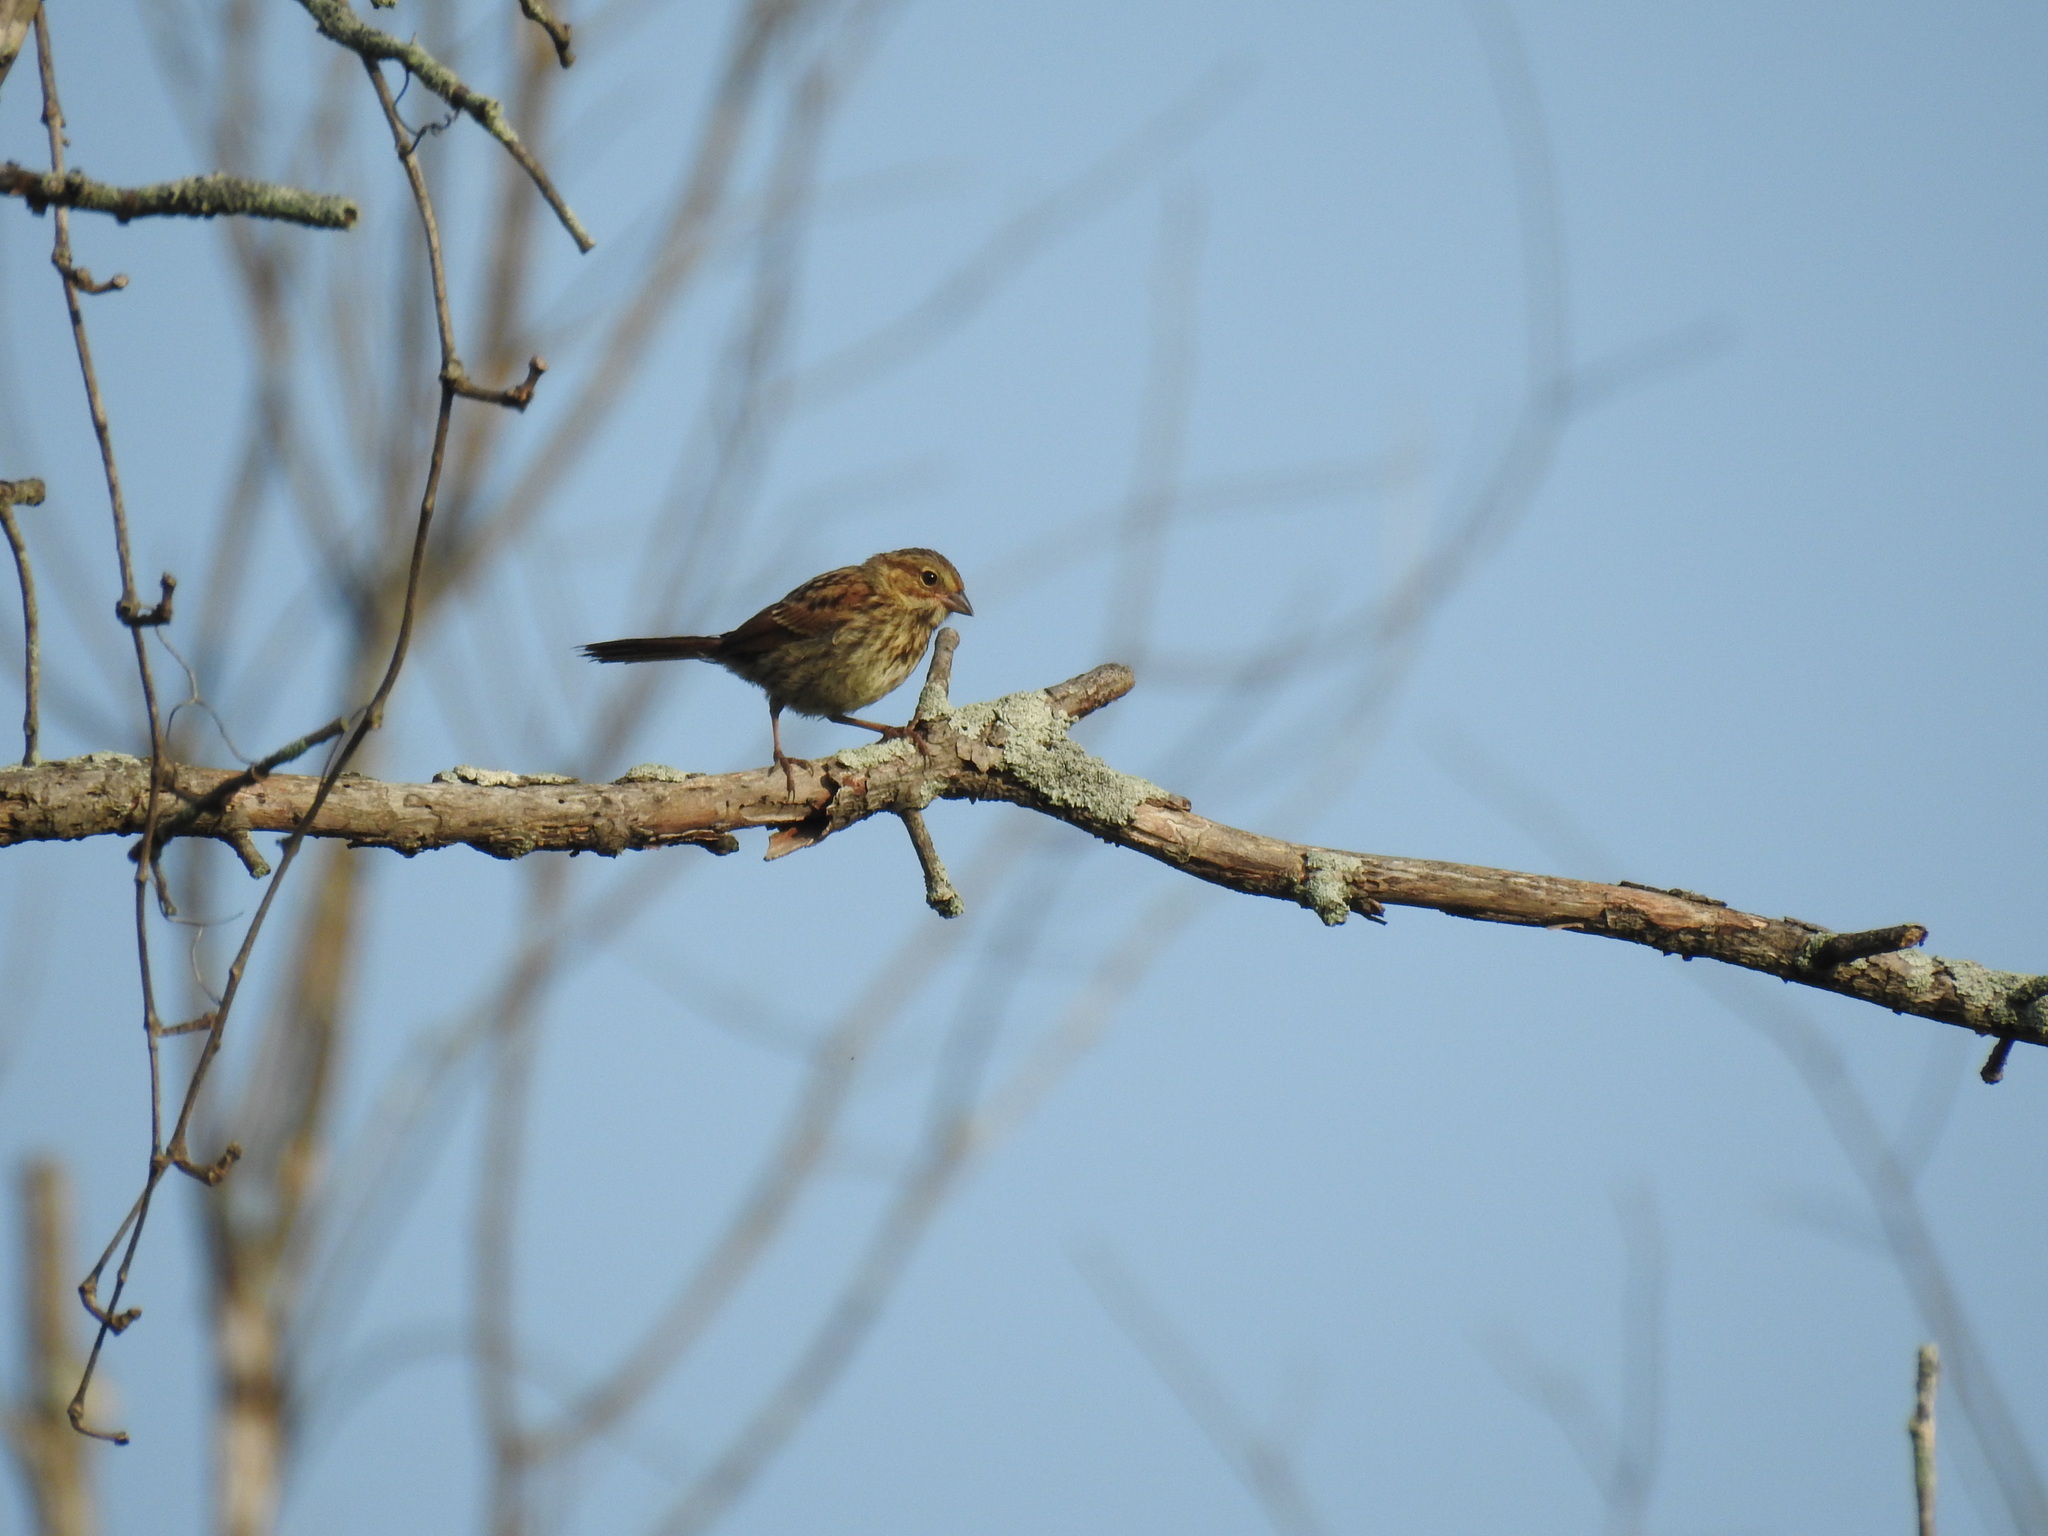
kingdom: Animalia
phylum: Chordata
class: Aves
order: Passeriformes
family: Passerellidae
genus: Melospiza
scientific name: Melospiza melodia
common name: Song sparrow
